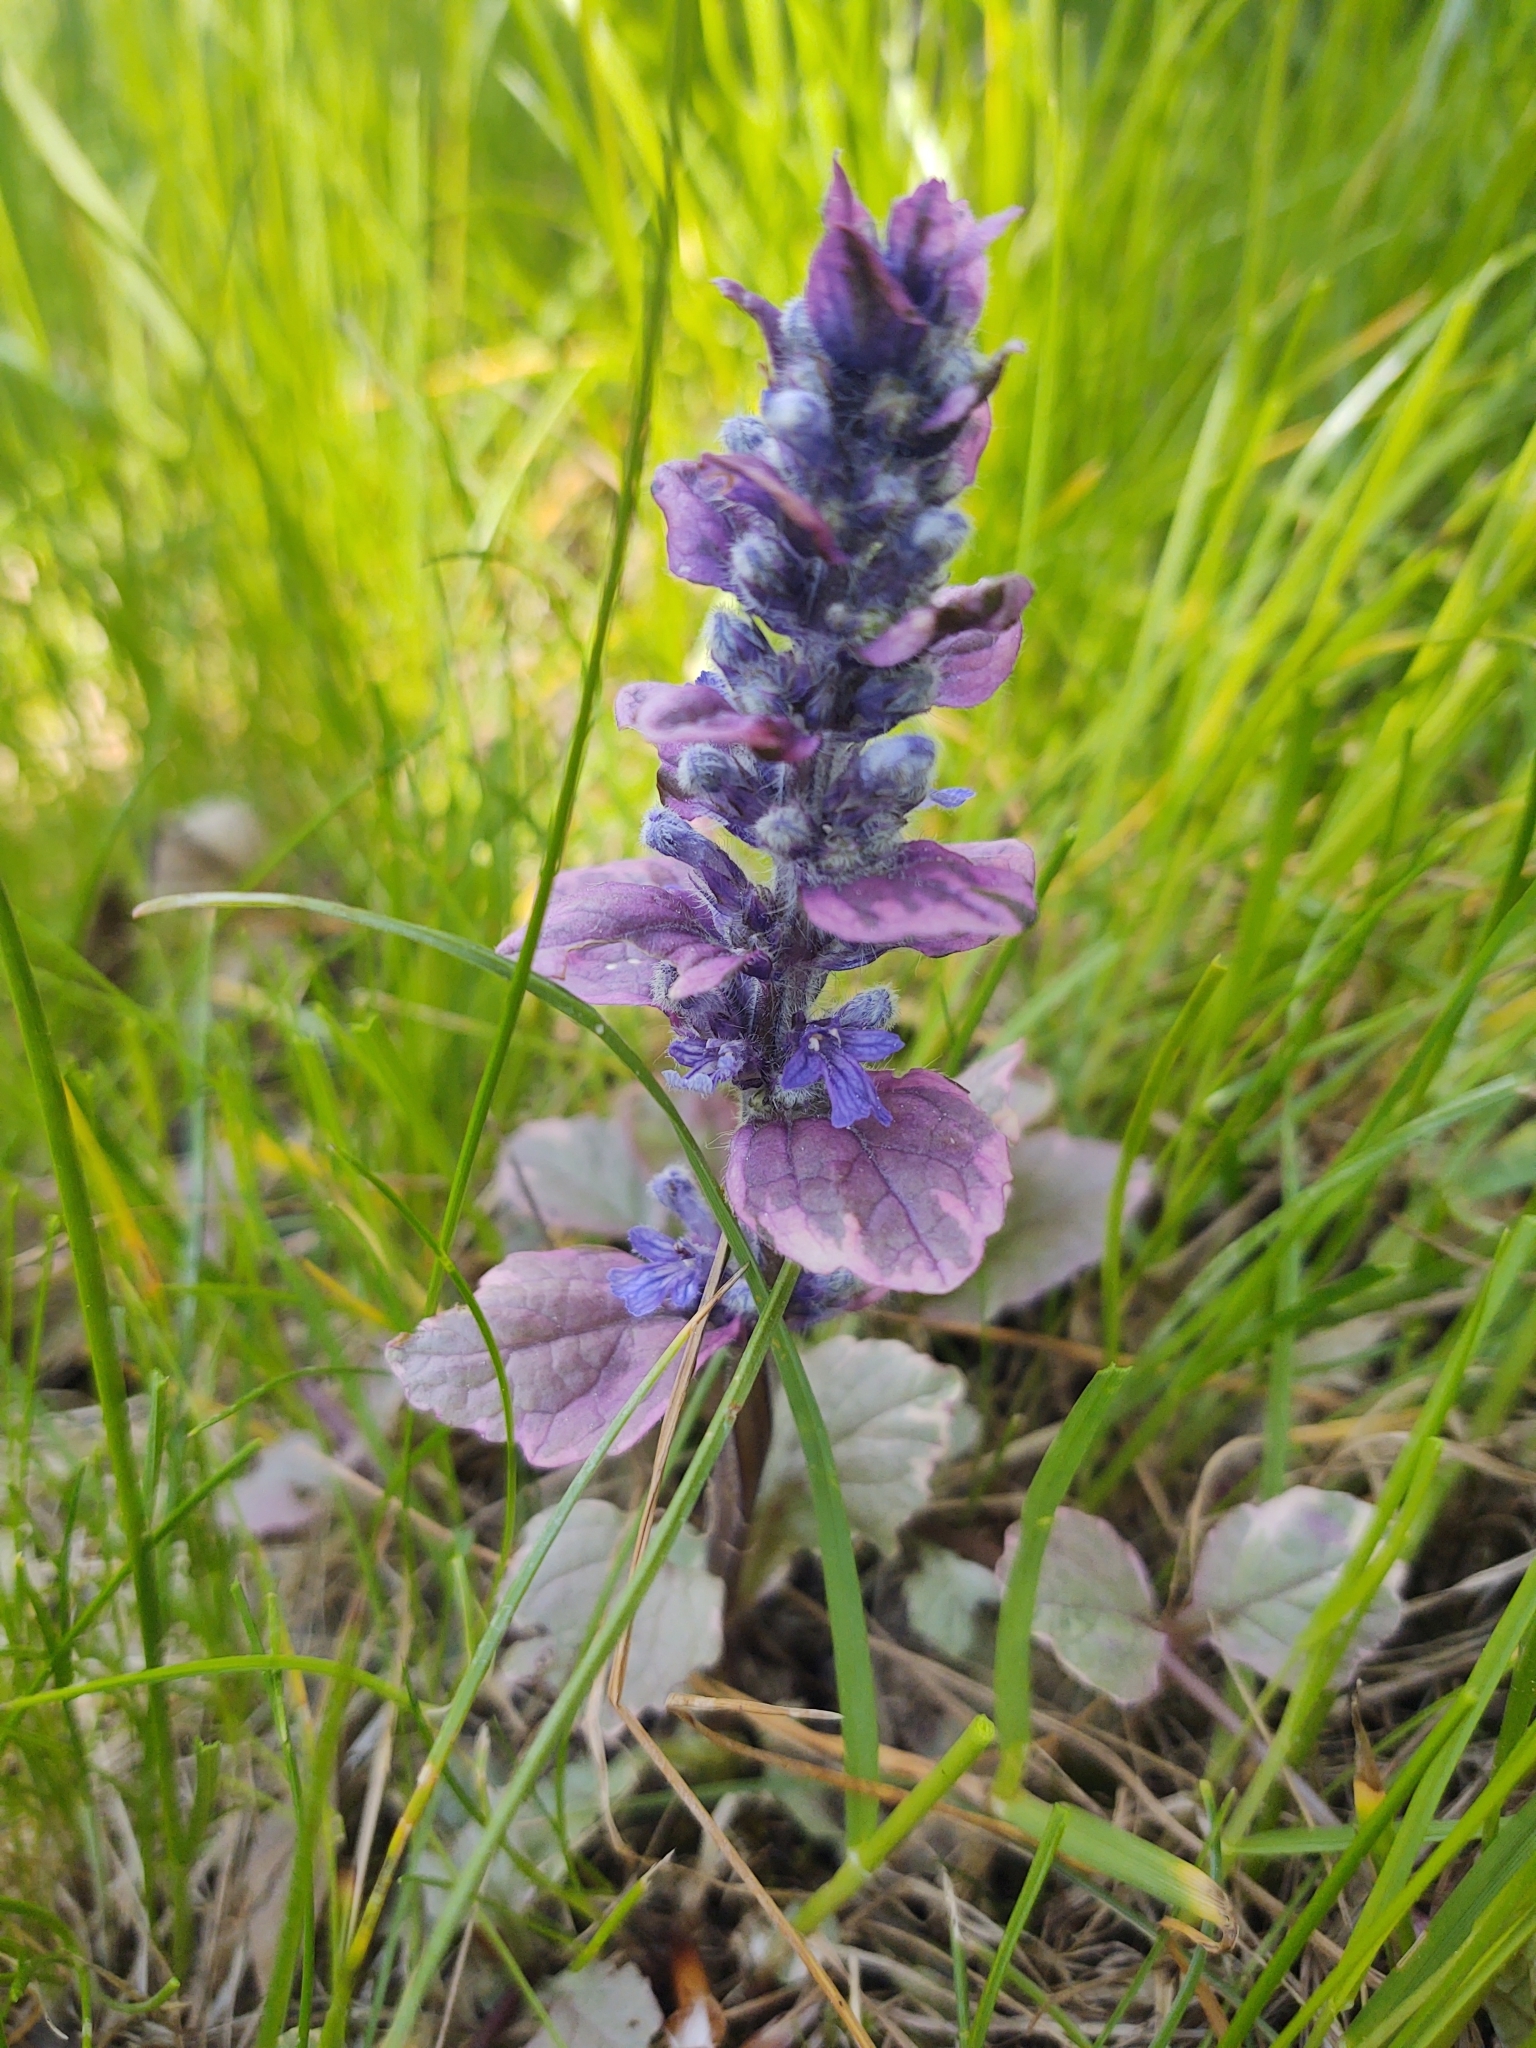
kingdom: Plantae
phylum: Tracheophyta
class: Magnoliopsida
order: Lamiales
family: Lamiaceae
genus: Ajuga
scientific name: Ajuga reptans
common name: Bugle
